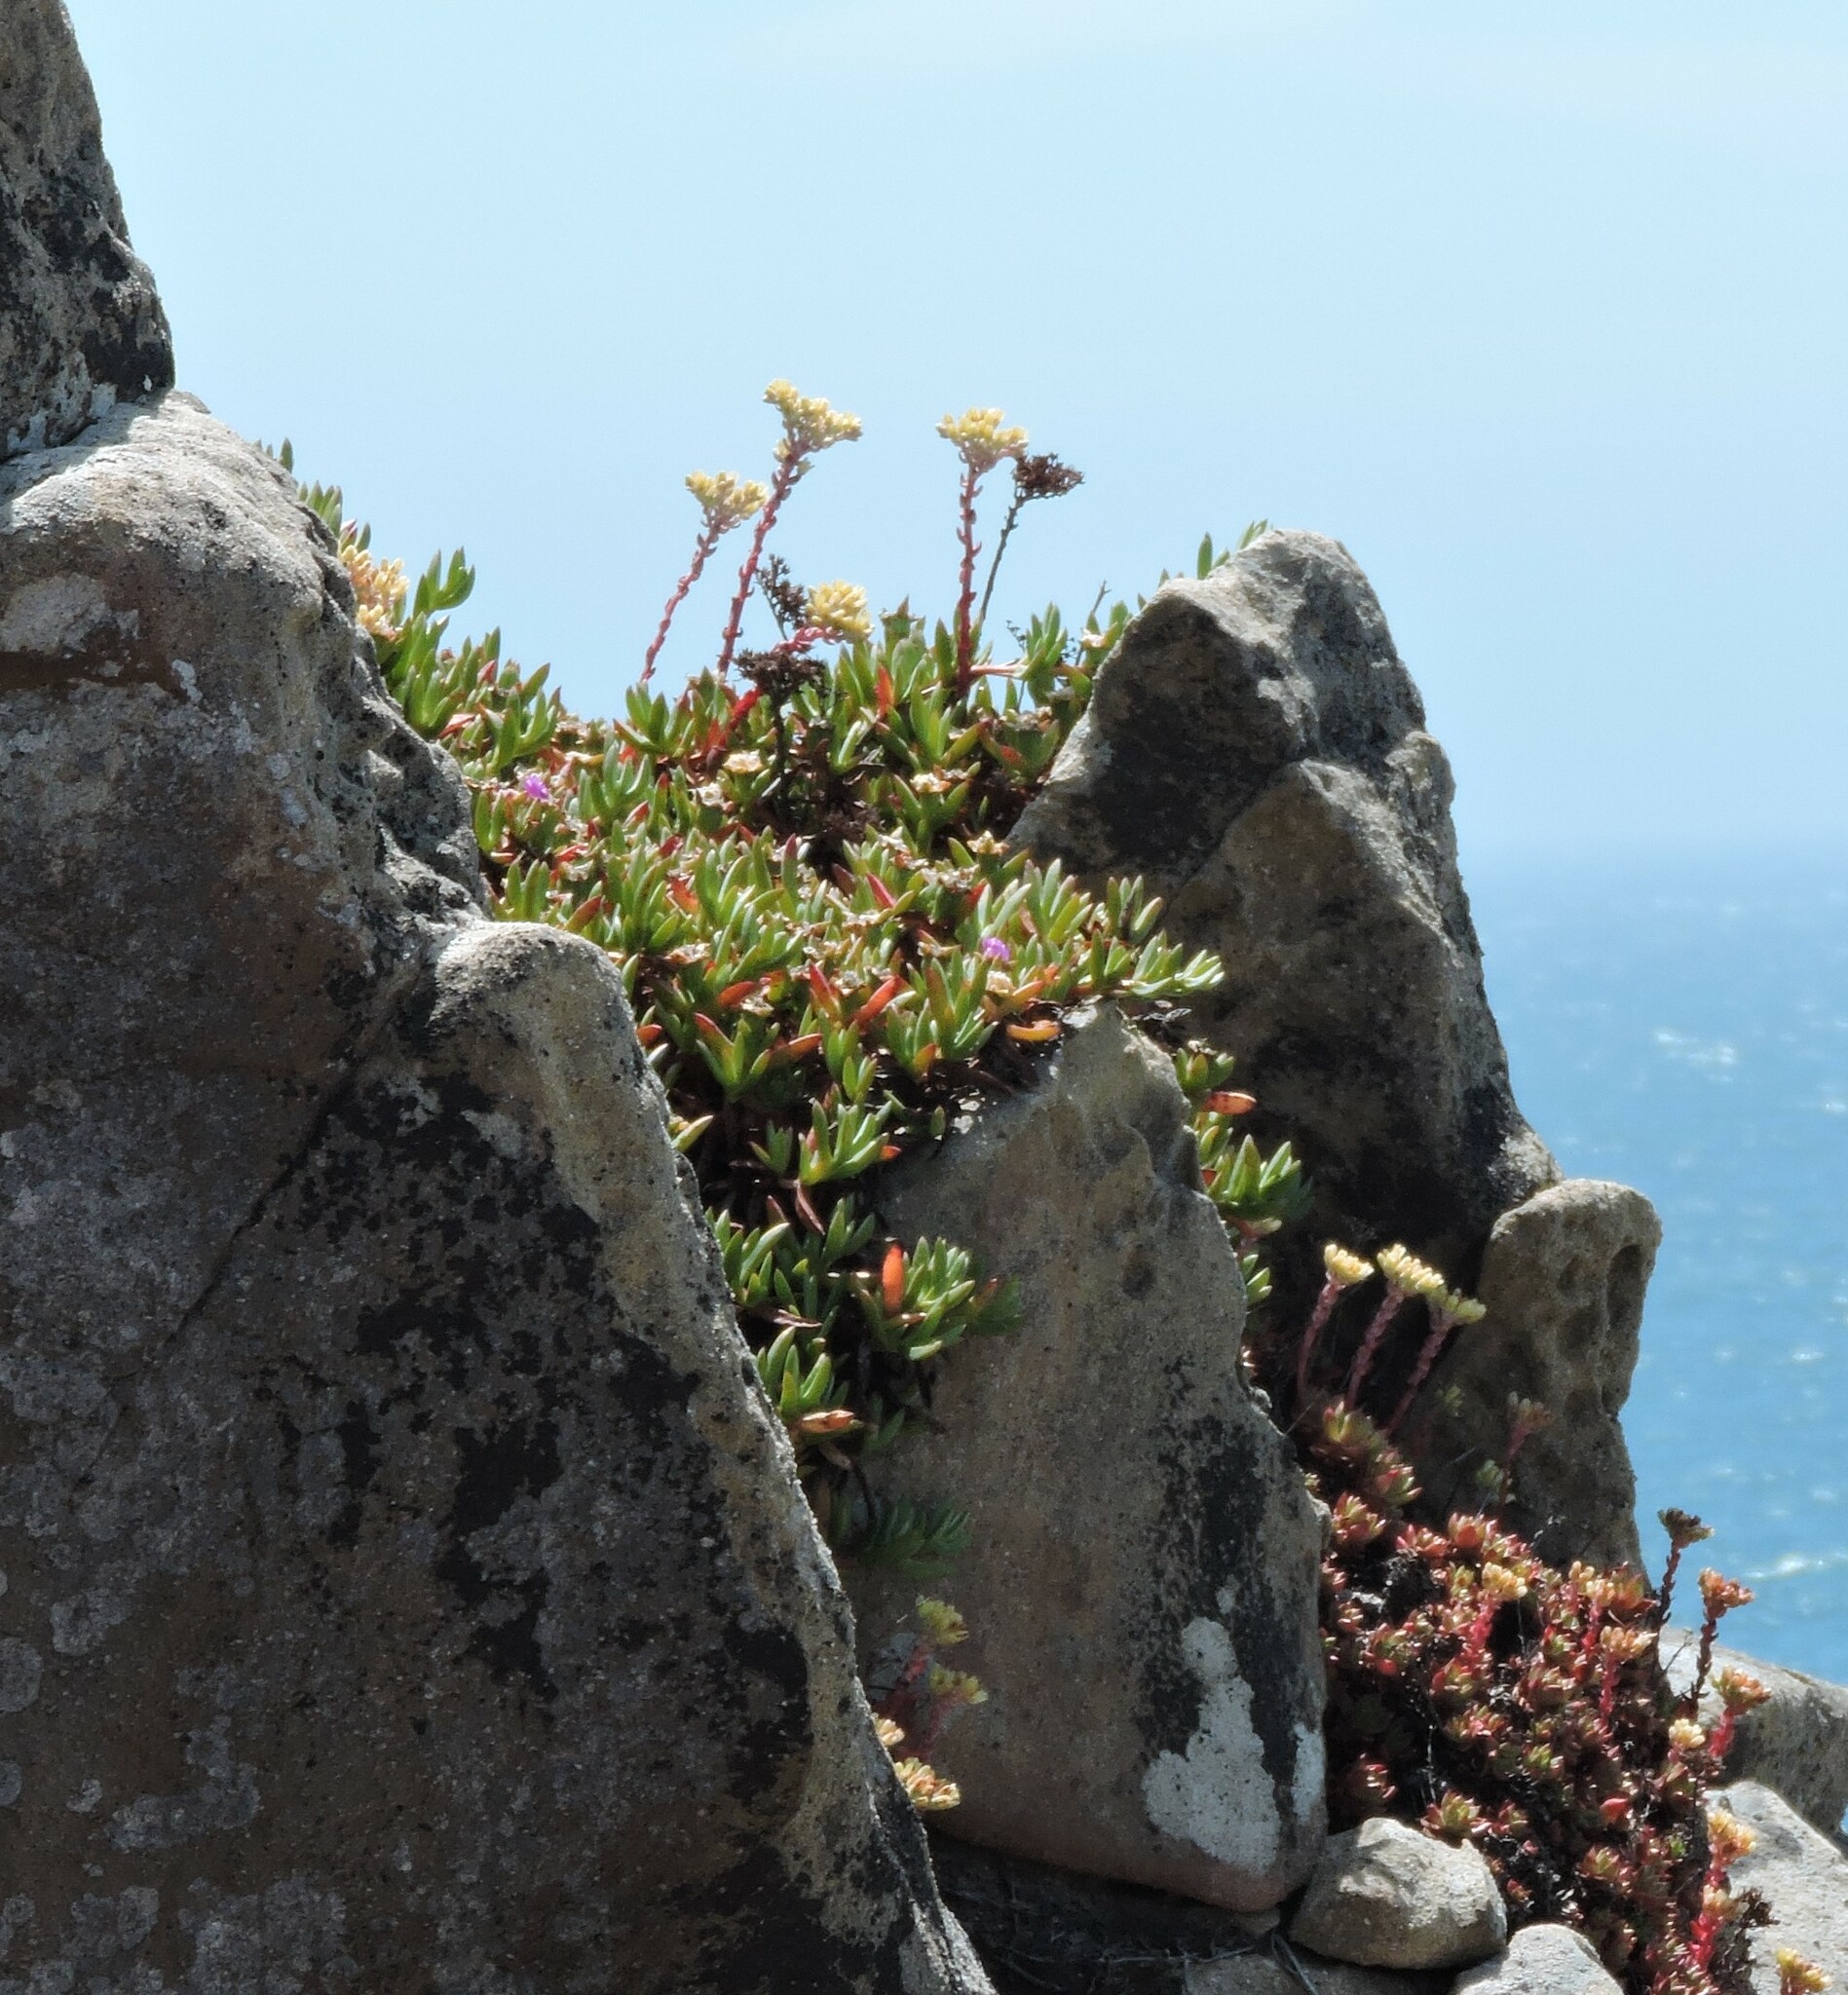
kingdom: Plantae
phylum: Tracheophyta
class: Magnoliopsida
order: Saxifragales
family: Crassulaceae
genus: Dudleya
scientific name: Dudleya farinosa
